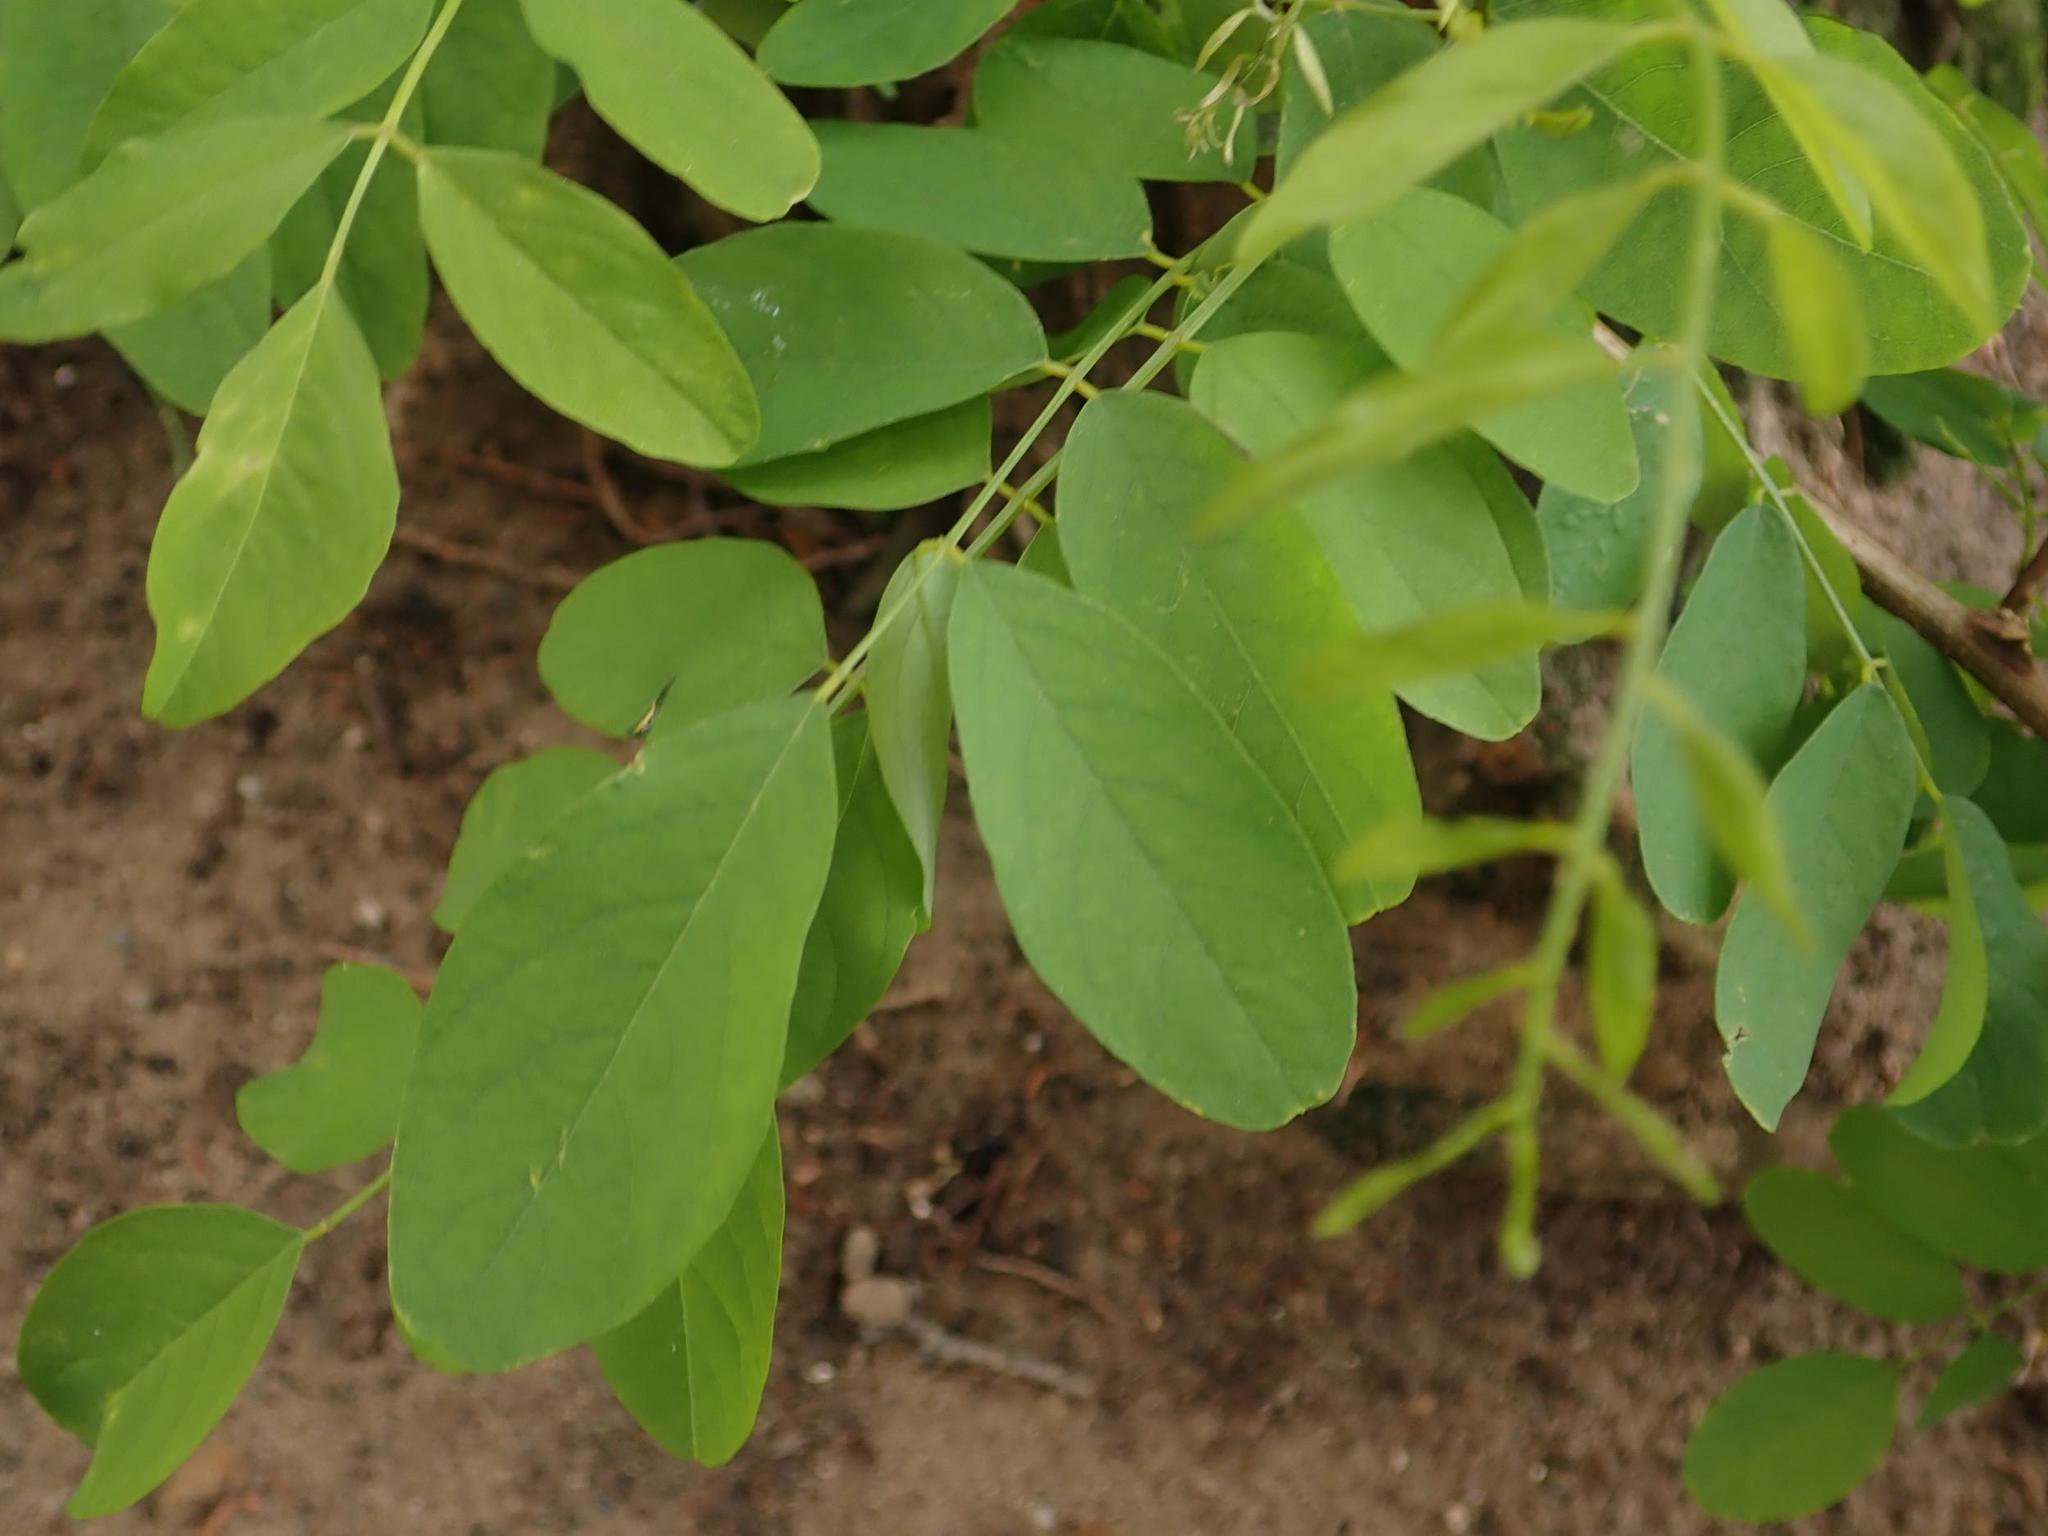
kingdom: Plantae
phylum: Tracheophyta
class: Magnoliopsida
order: Fabales
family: Fabaceae
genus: Robinia
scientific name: Robinia pseudoacacia
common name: Black locust
